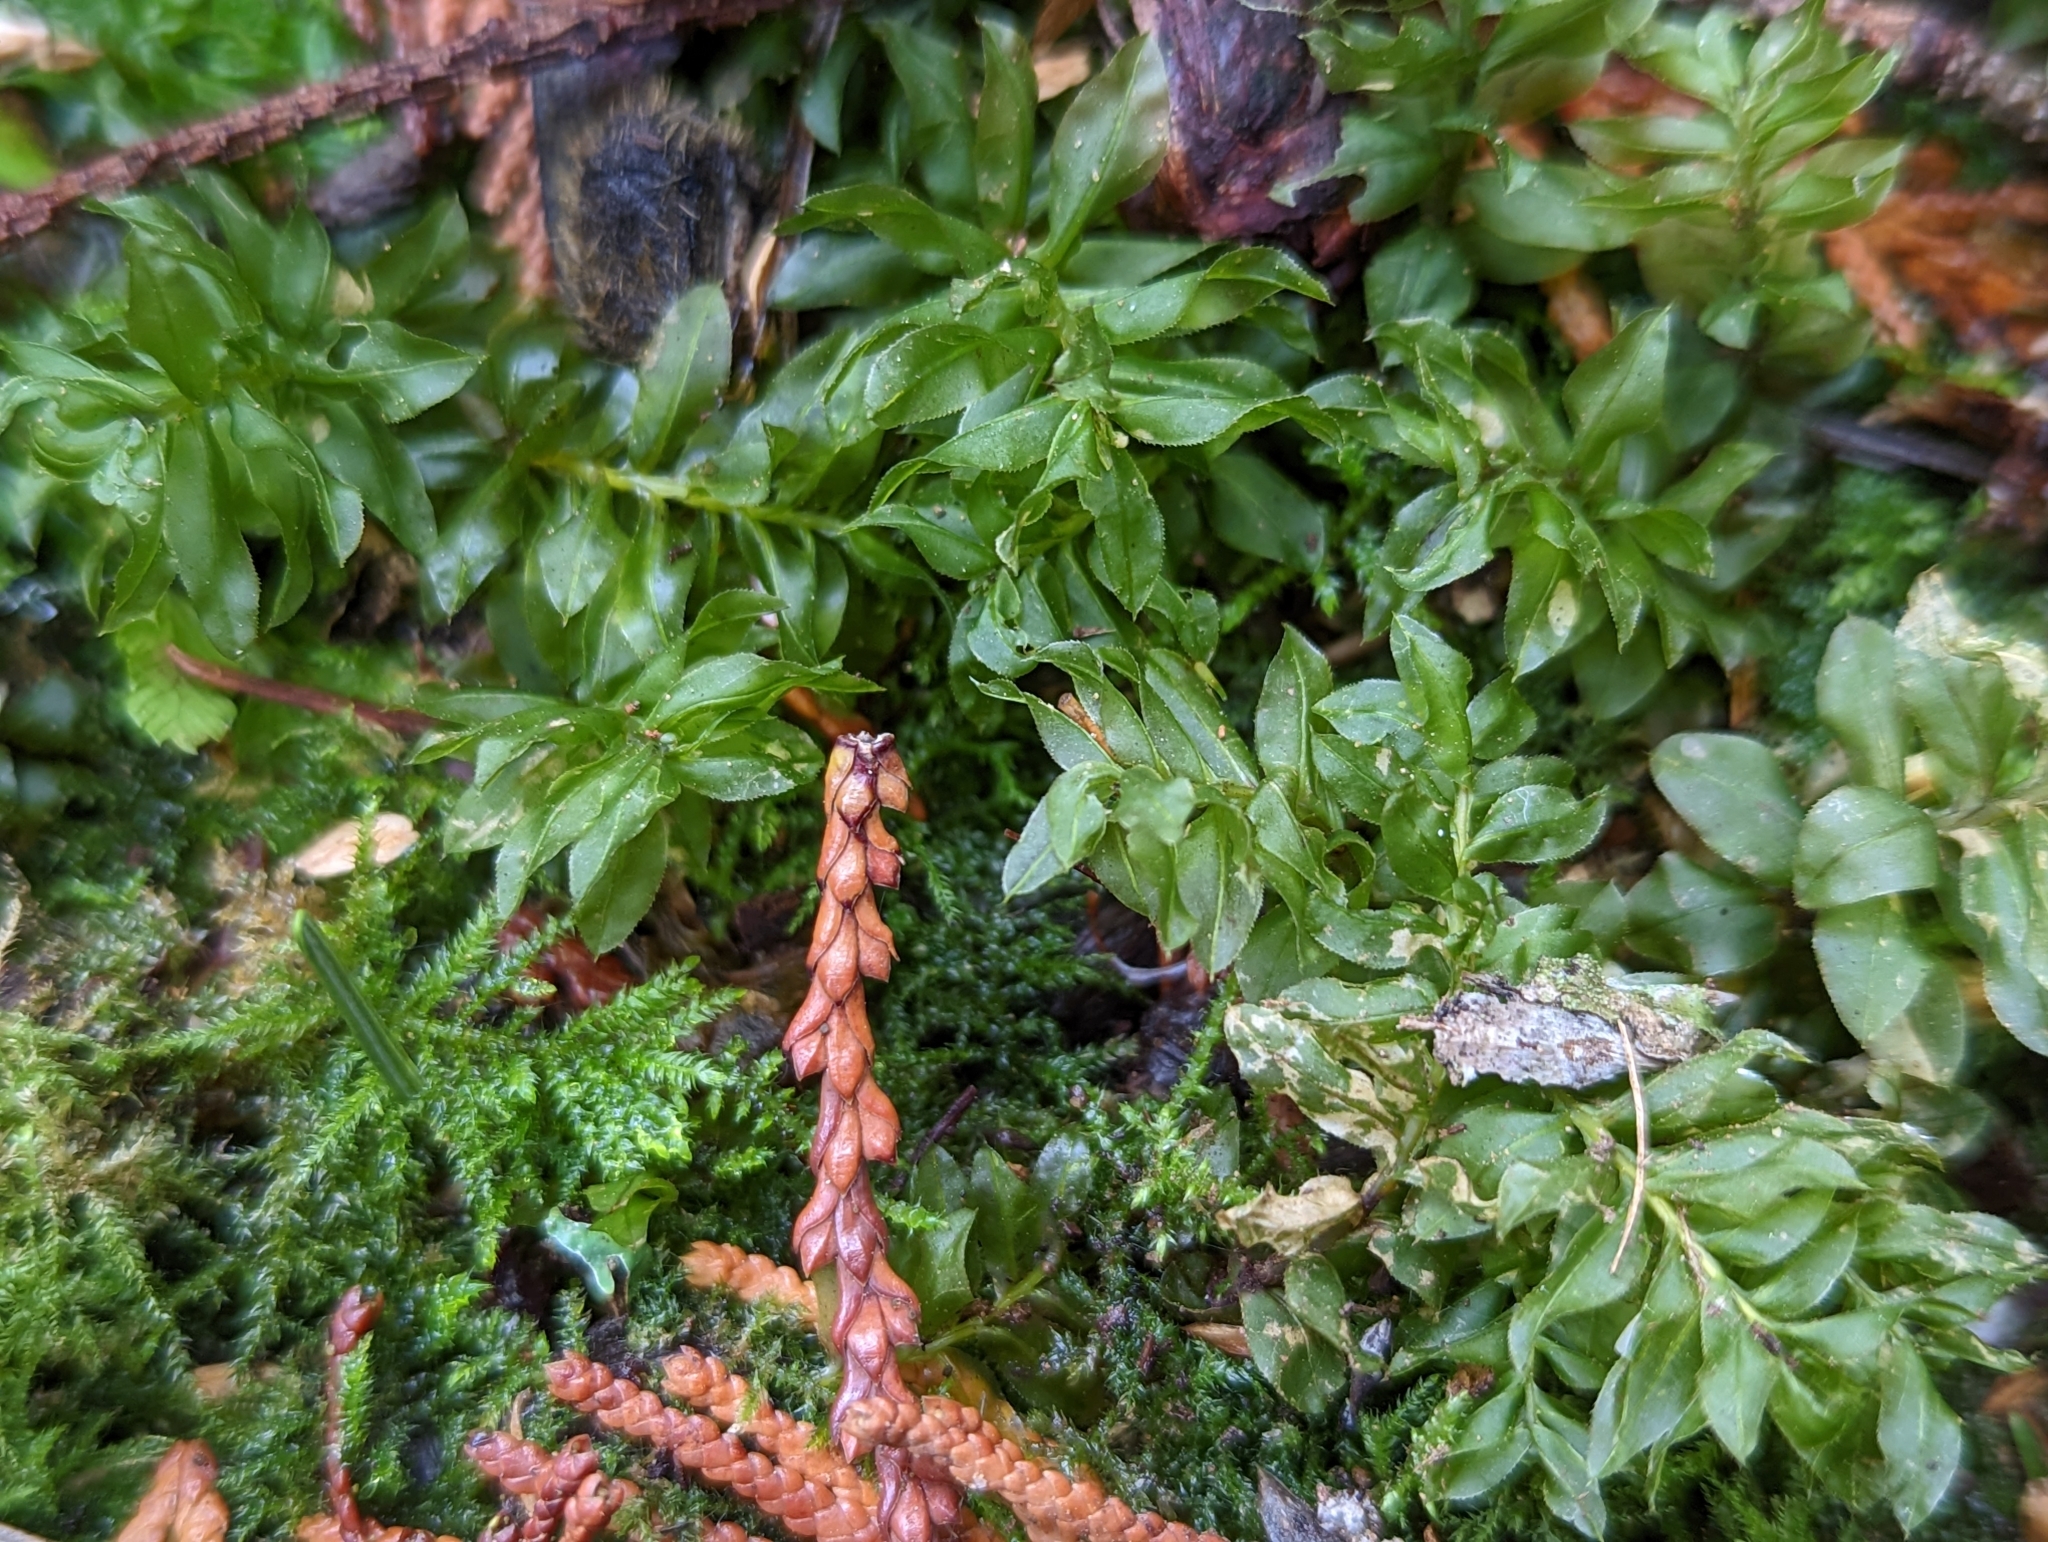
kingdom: Plantae
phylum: Bryophyta
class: Bryopsida
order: Bryales
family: Mniaceae
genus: Plagiomnium
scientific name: Plagiomnium insigne
